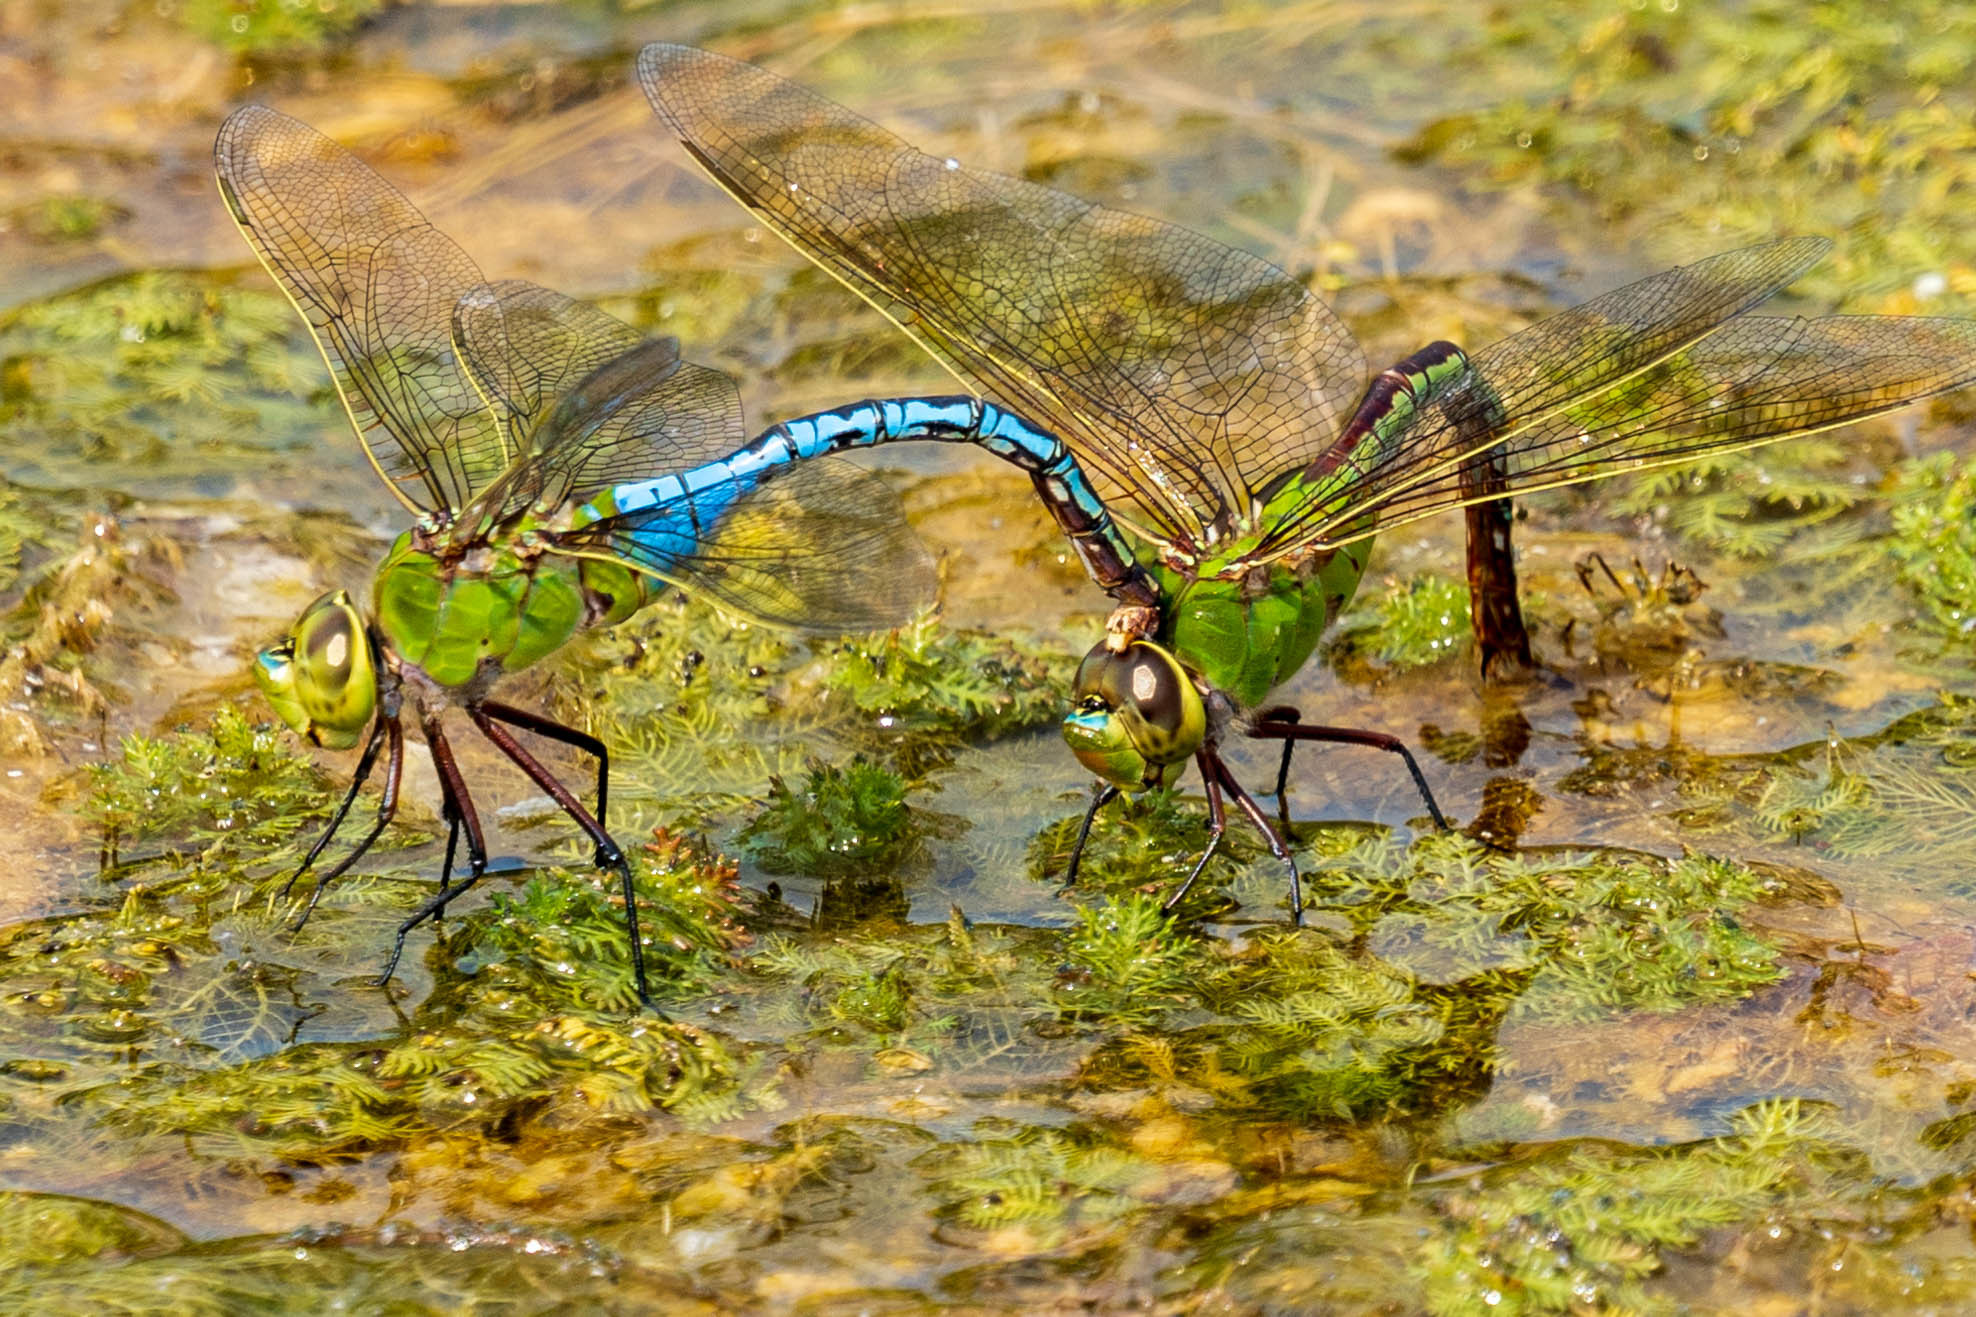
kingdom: Animalia
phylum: Arthropoda
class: Insecta
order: Odonata
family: Aeshnidae
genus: Anax
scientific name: Anax junius
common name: Common green darner
